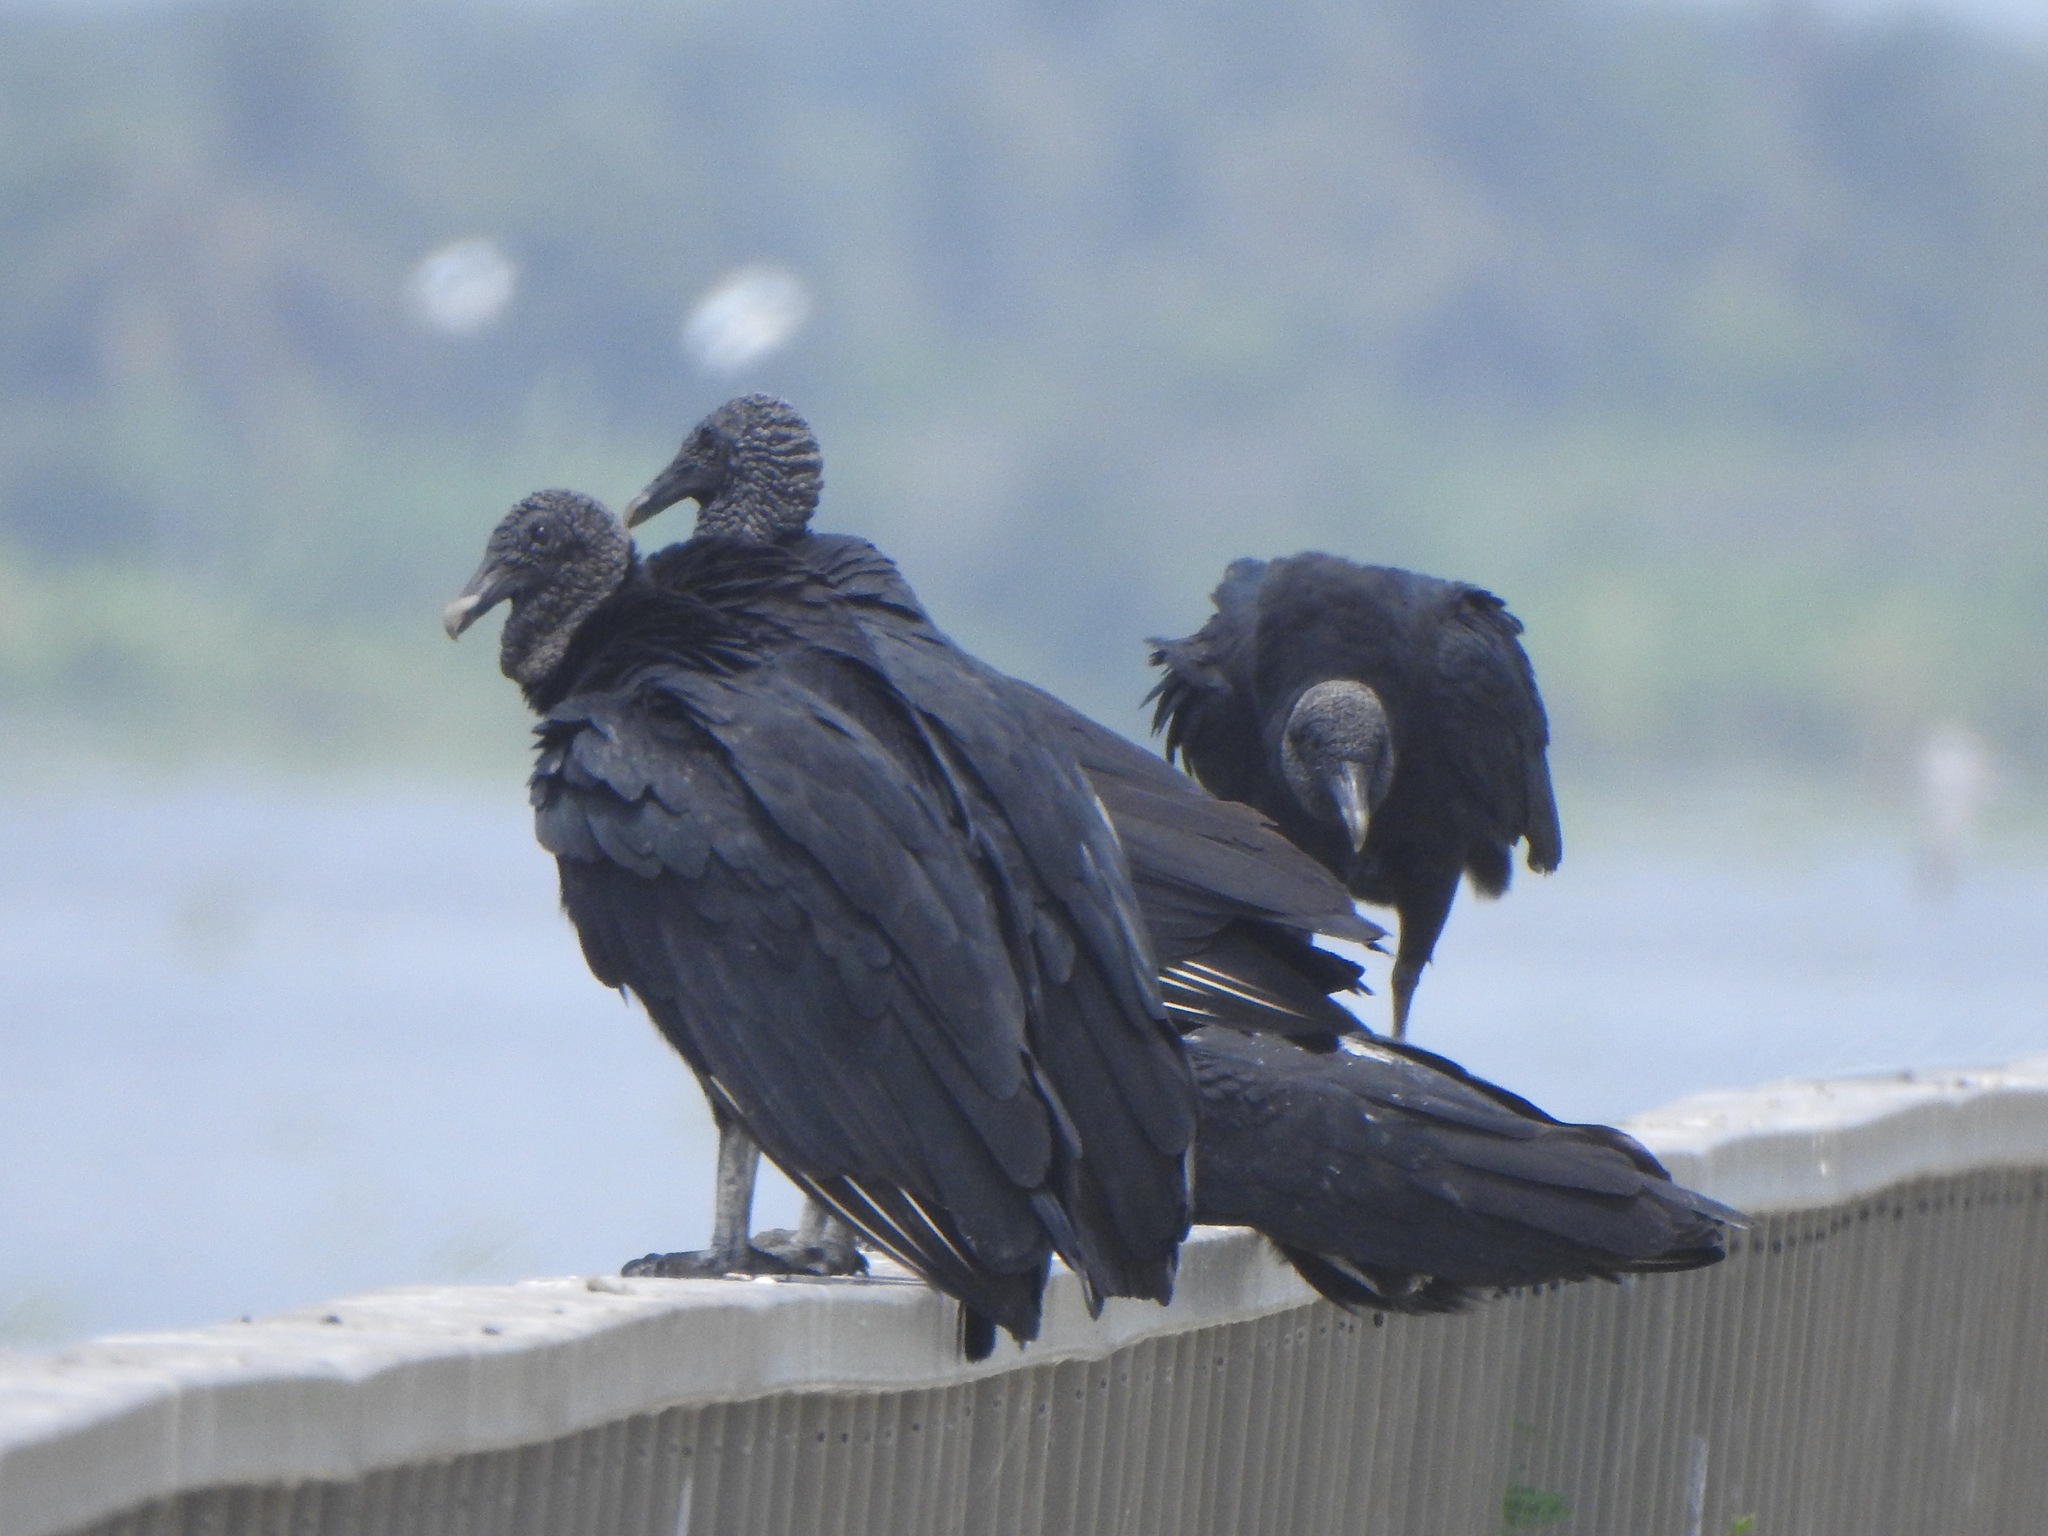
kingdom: Animalia
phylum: Chordata
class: Aves
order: Accipitriformes
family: Cathartidae
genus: Coragyps
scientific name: Coragyps atratus
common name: Black vulture
